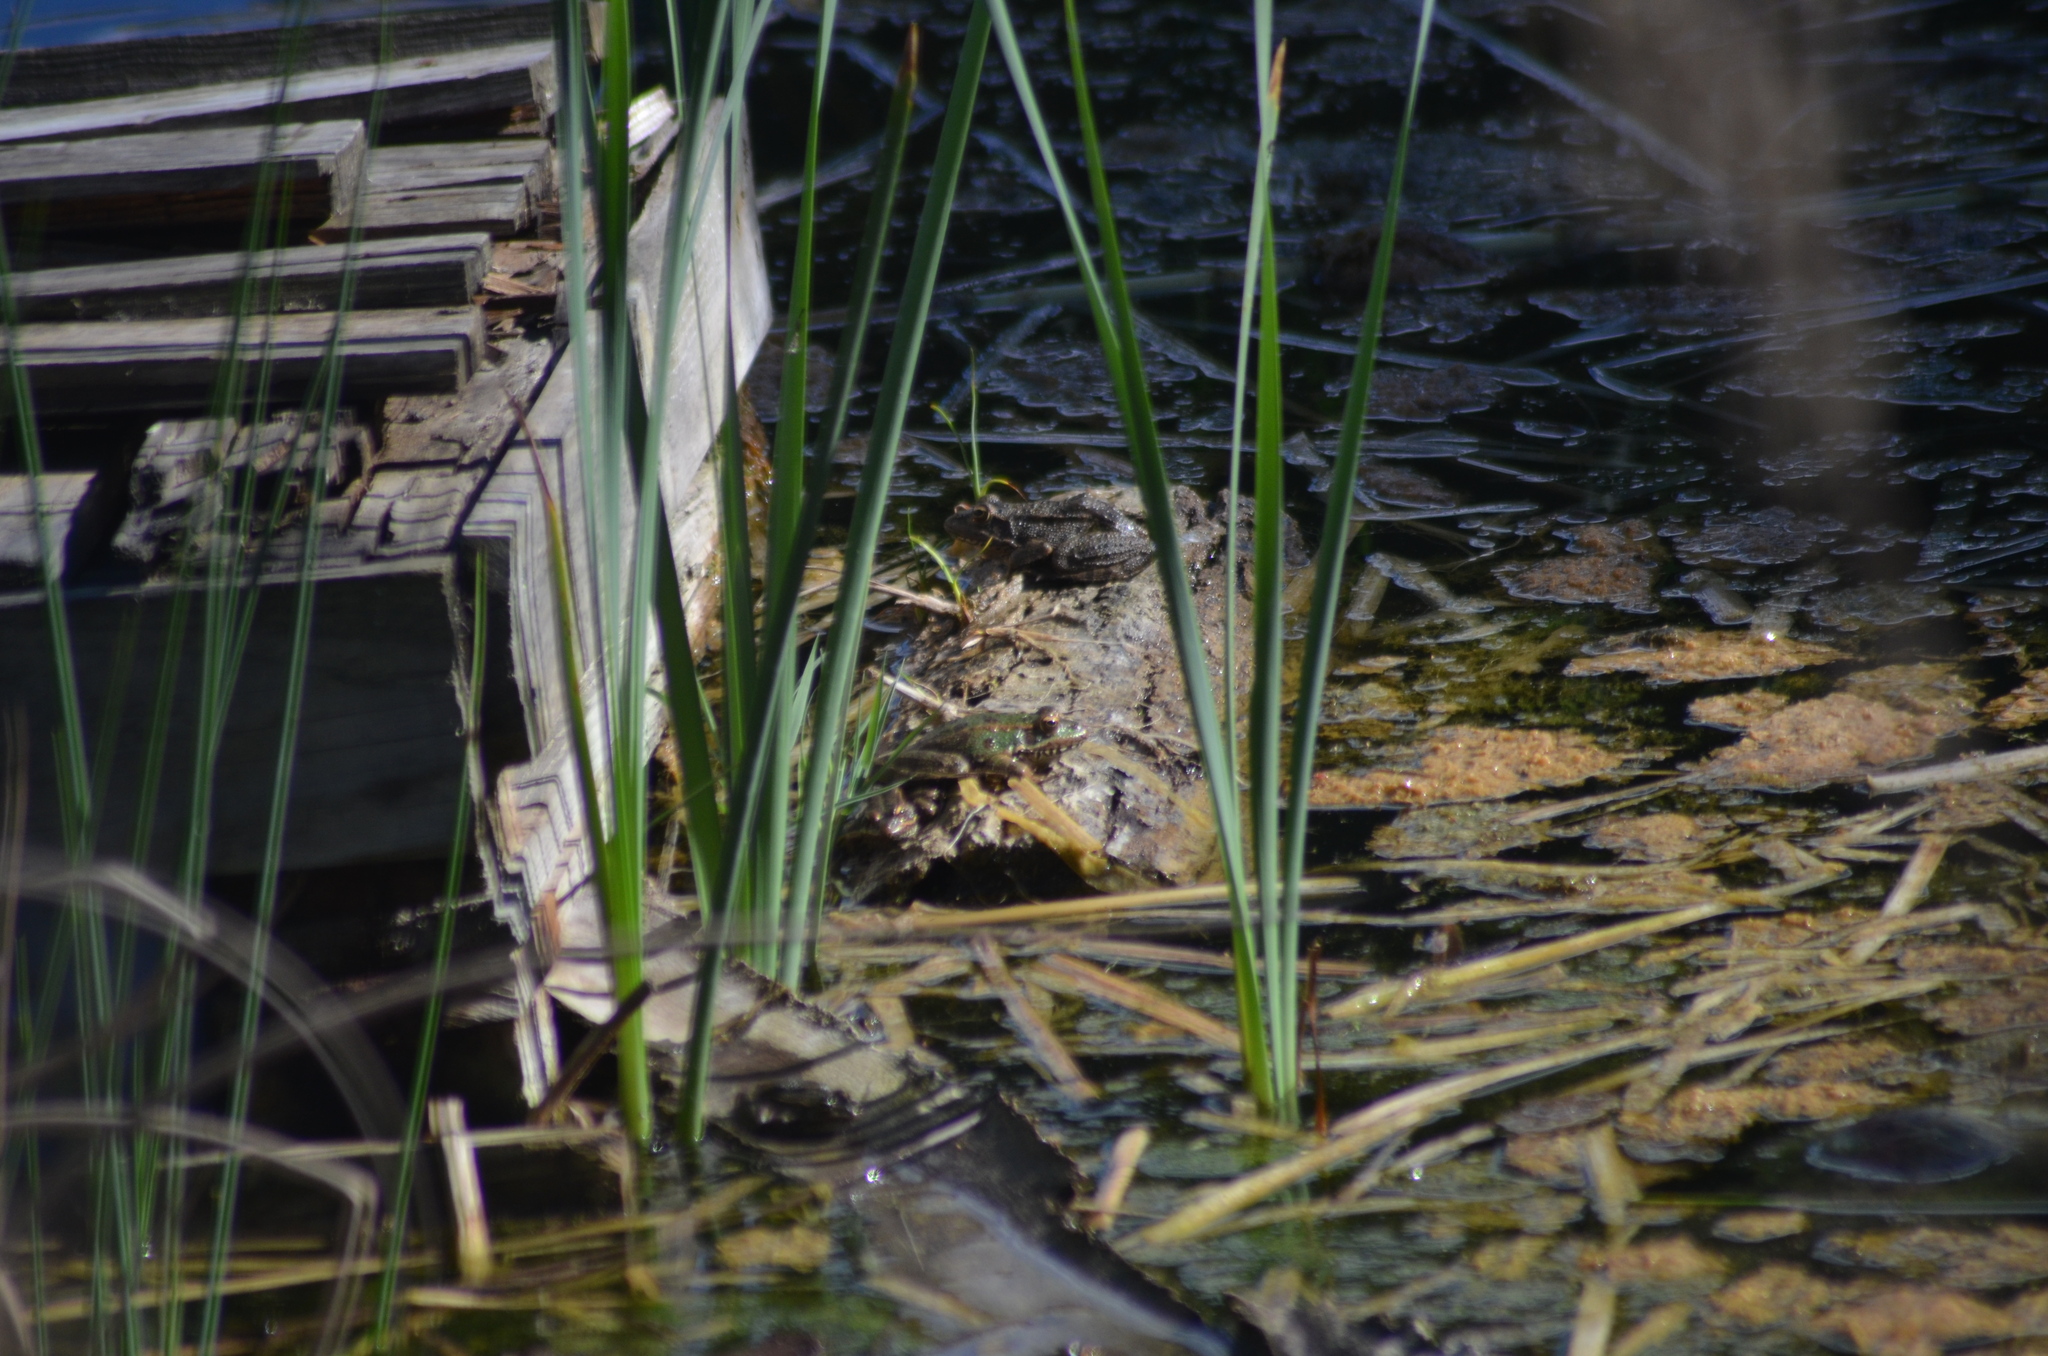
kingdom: Animalia
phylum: Chordata
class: Amphibia
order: Anura
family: Ranidae
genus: Pelophylax
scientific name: Pelophylax perezi
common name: Perez's frog
